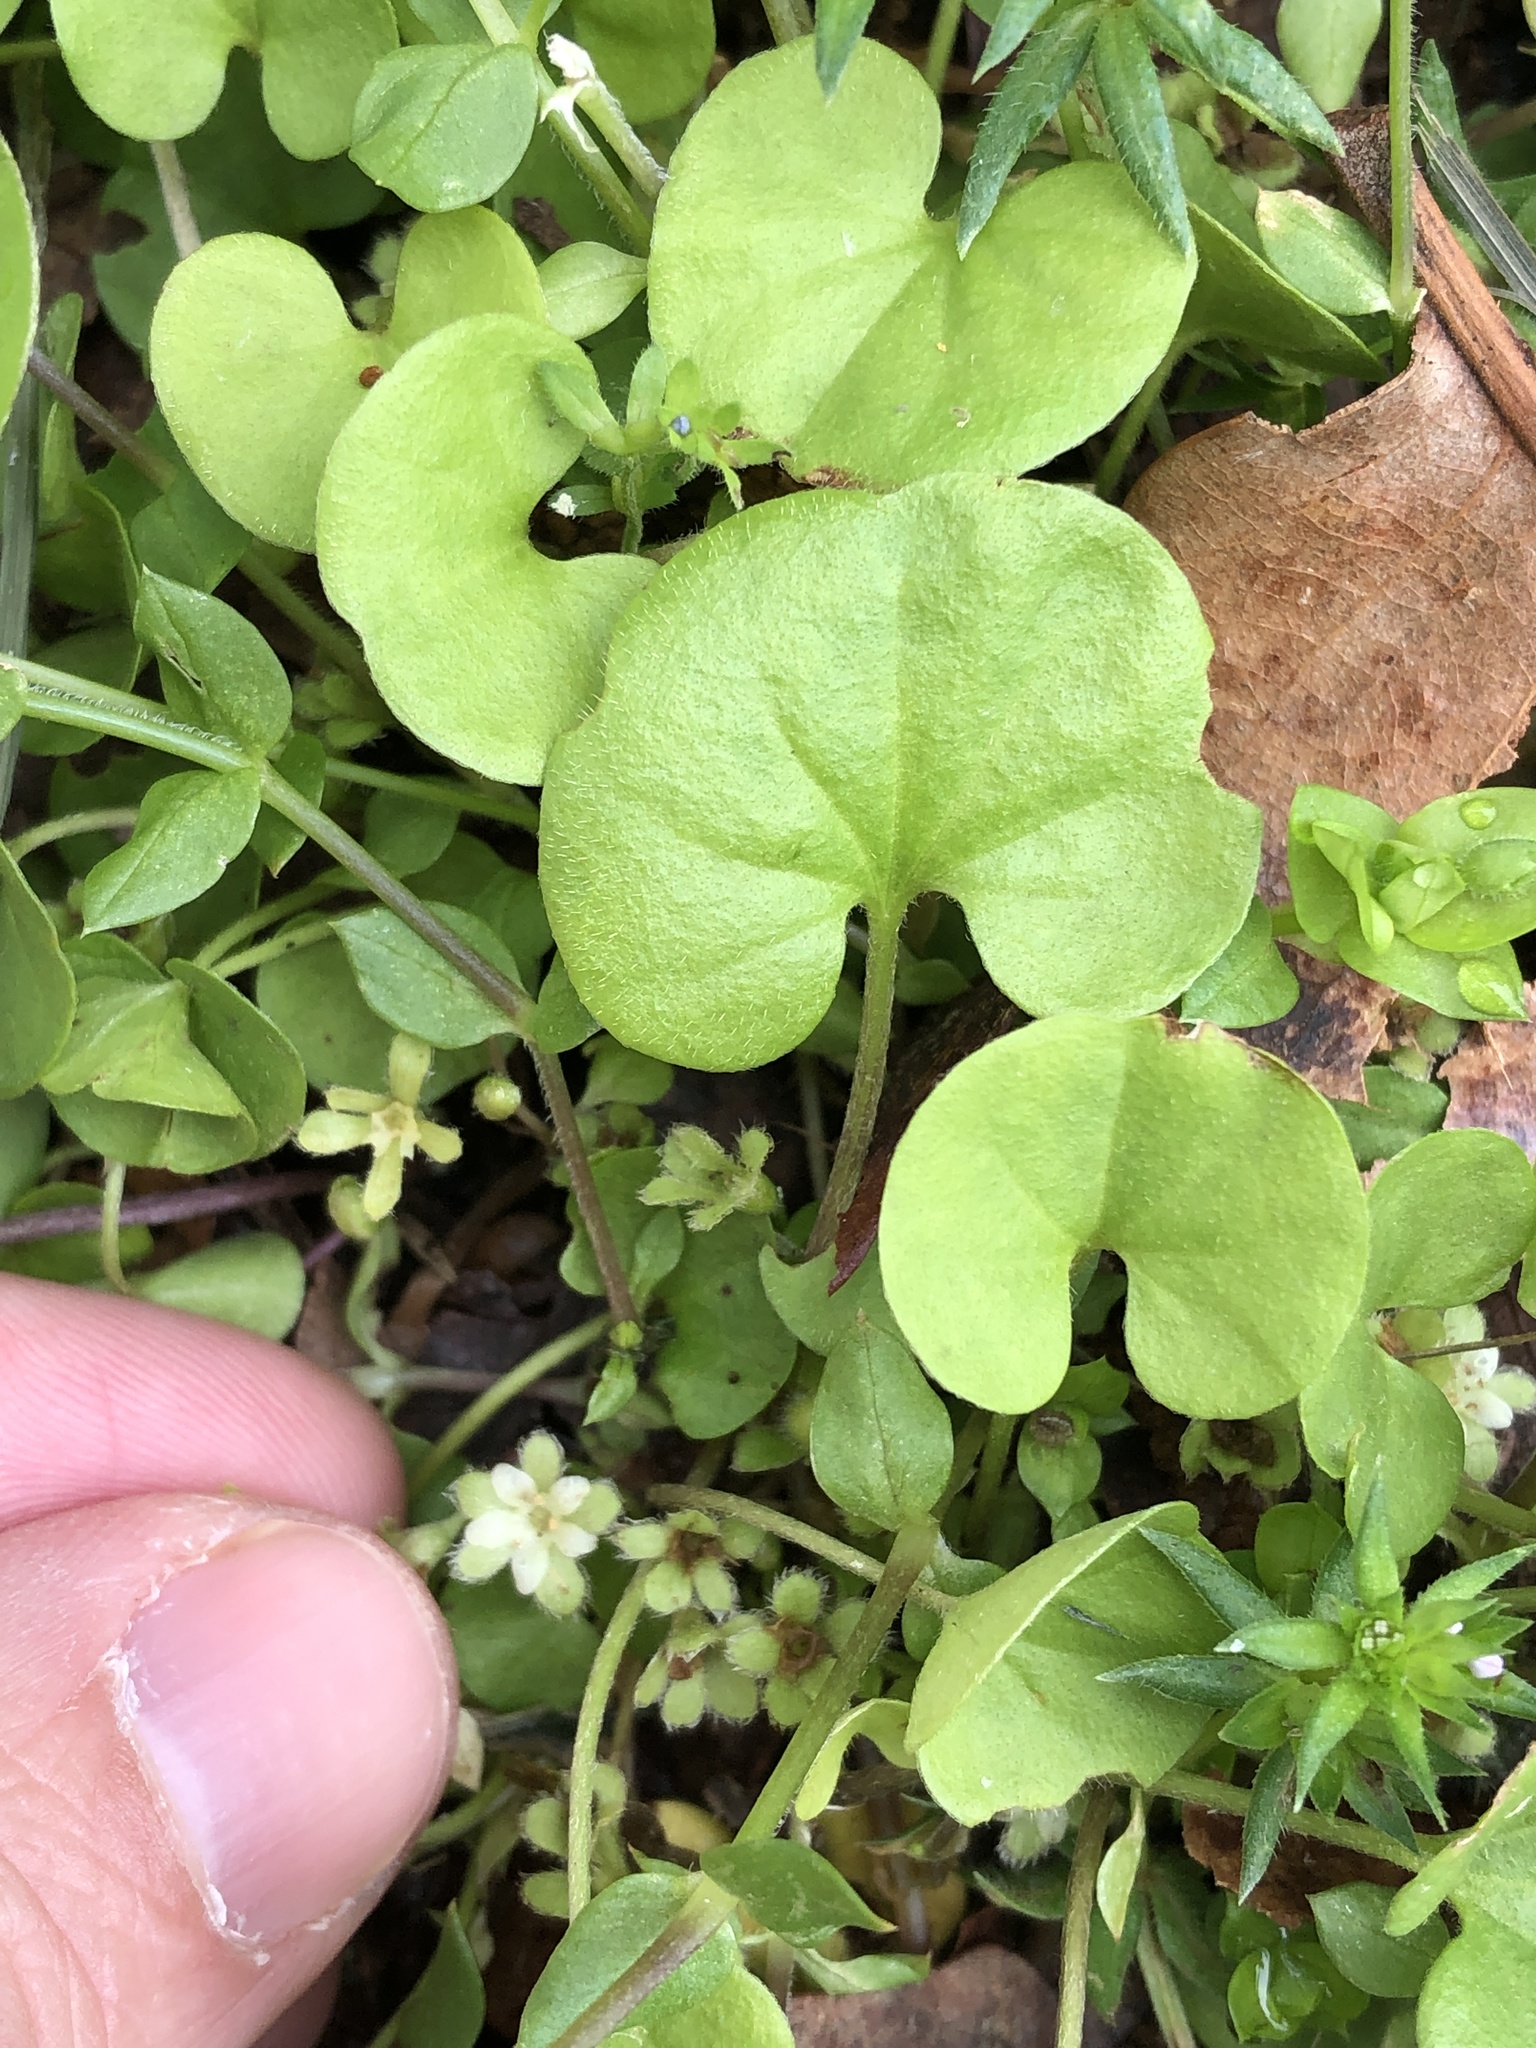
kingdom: Plantae
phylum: Tracheophyta
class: Magnoliopsida
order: Solanales
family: Convolvulaceae
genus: Dichondra
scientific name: Dichondra carolinensis
